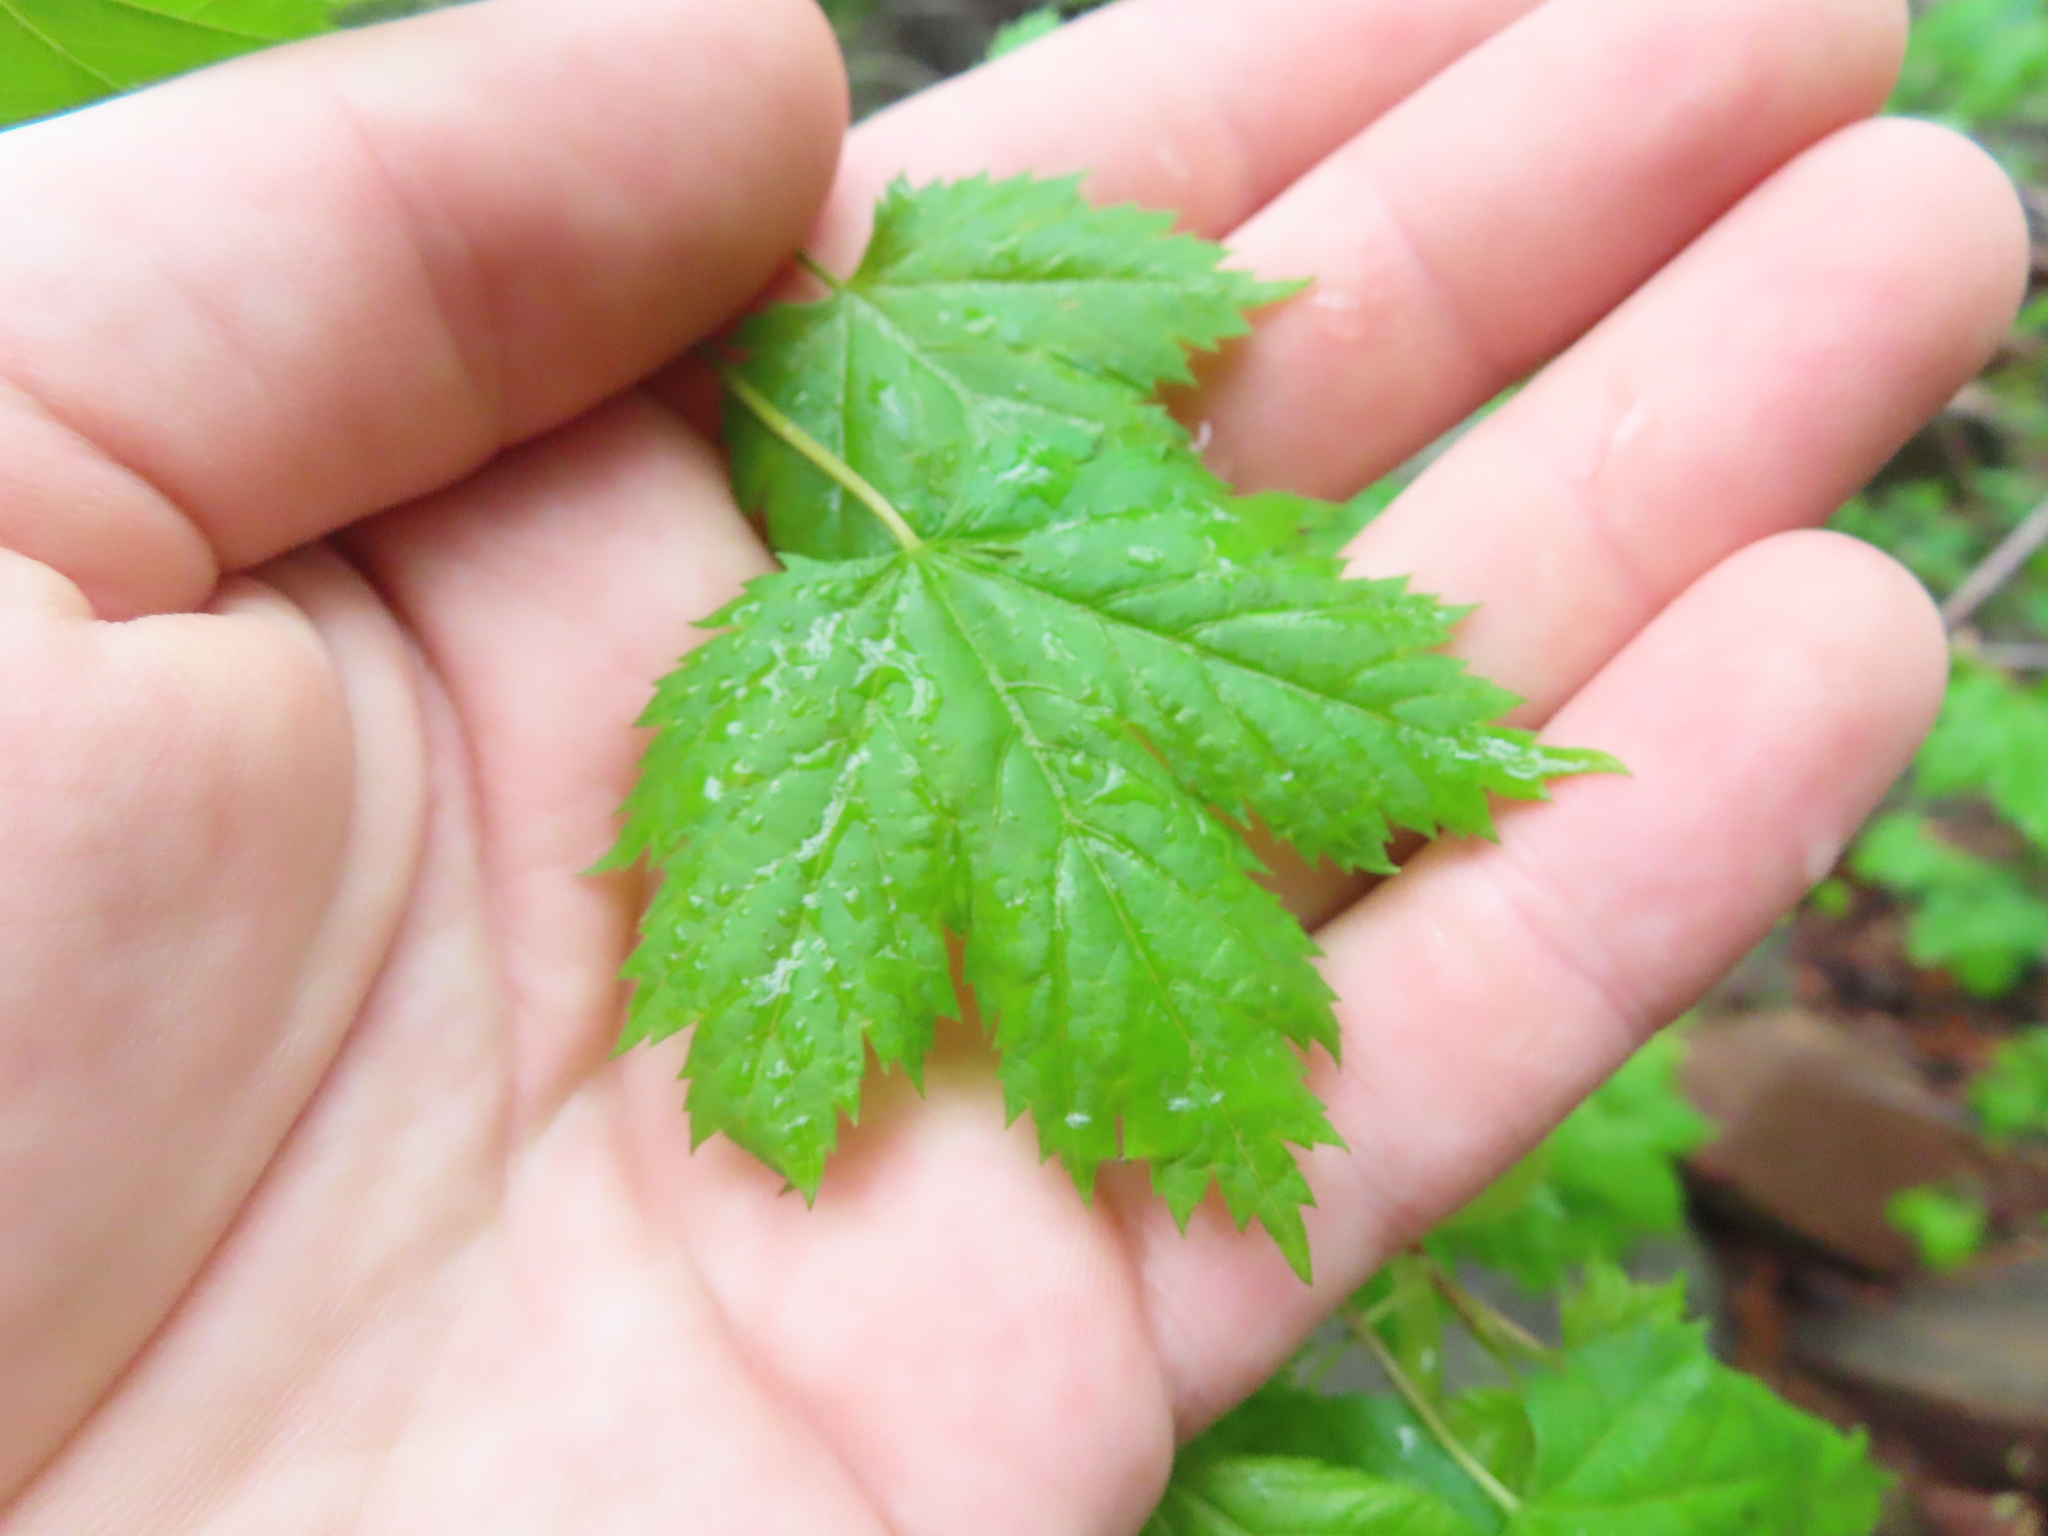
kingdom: Plantae
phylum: Tracheophyta
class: Magnoliopsida
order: Sapindales
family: Sapindaceae
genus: Acer
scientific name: Acer glabrum
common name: Rocky mountain maple
